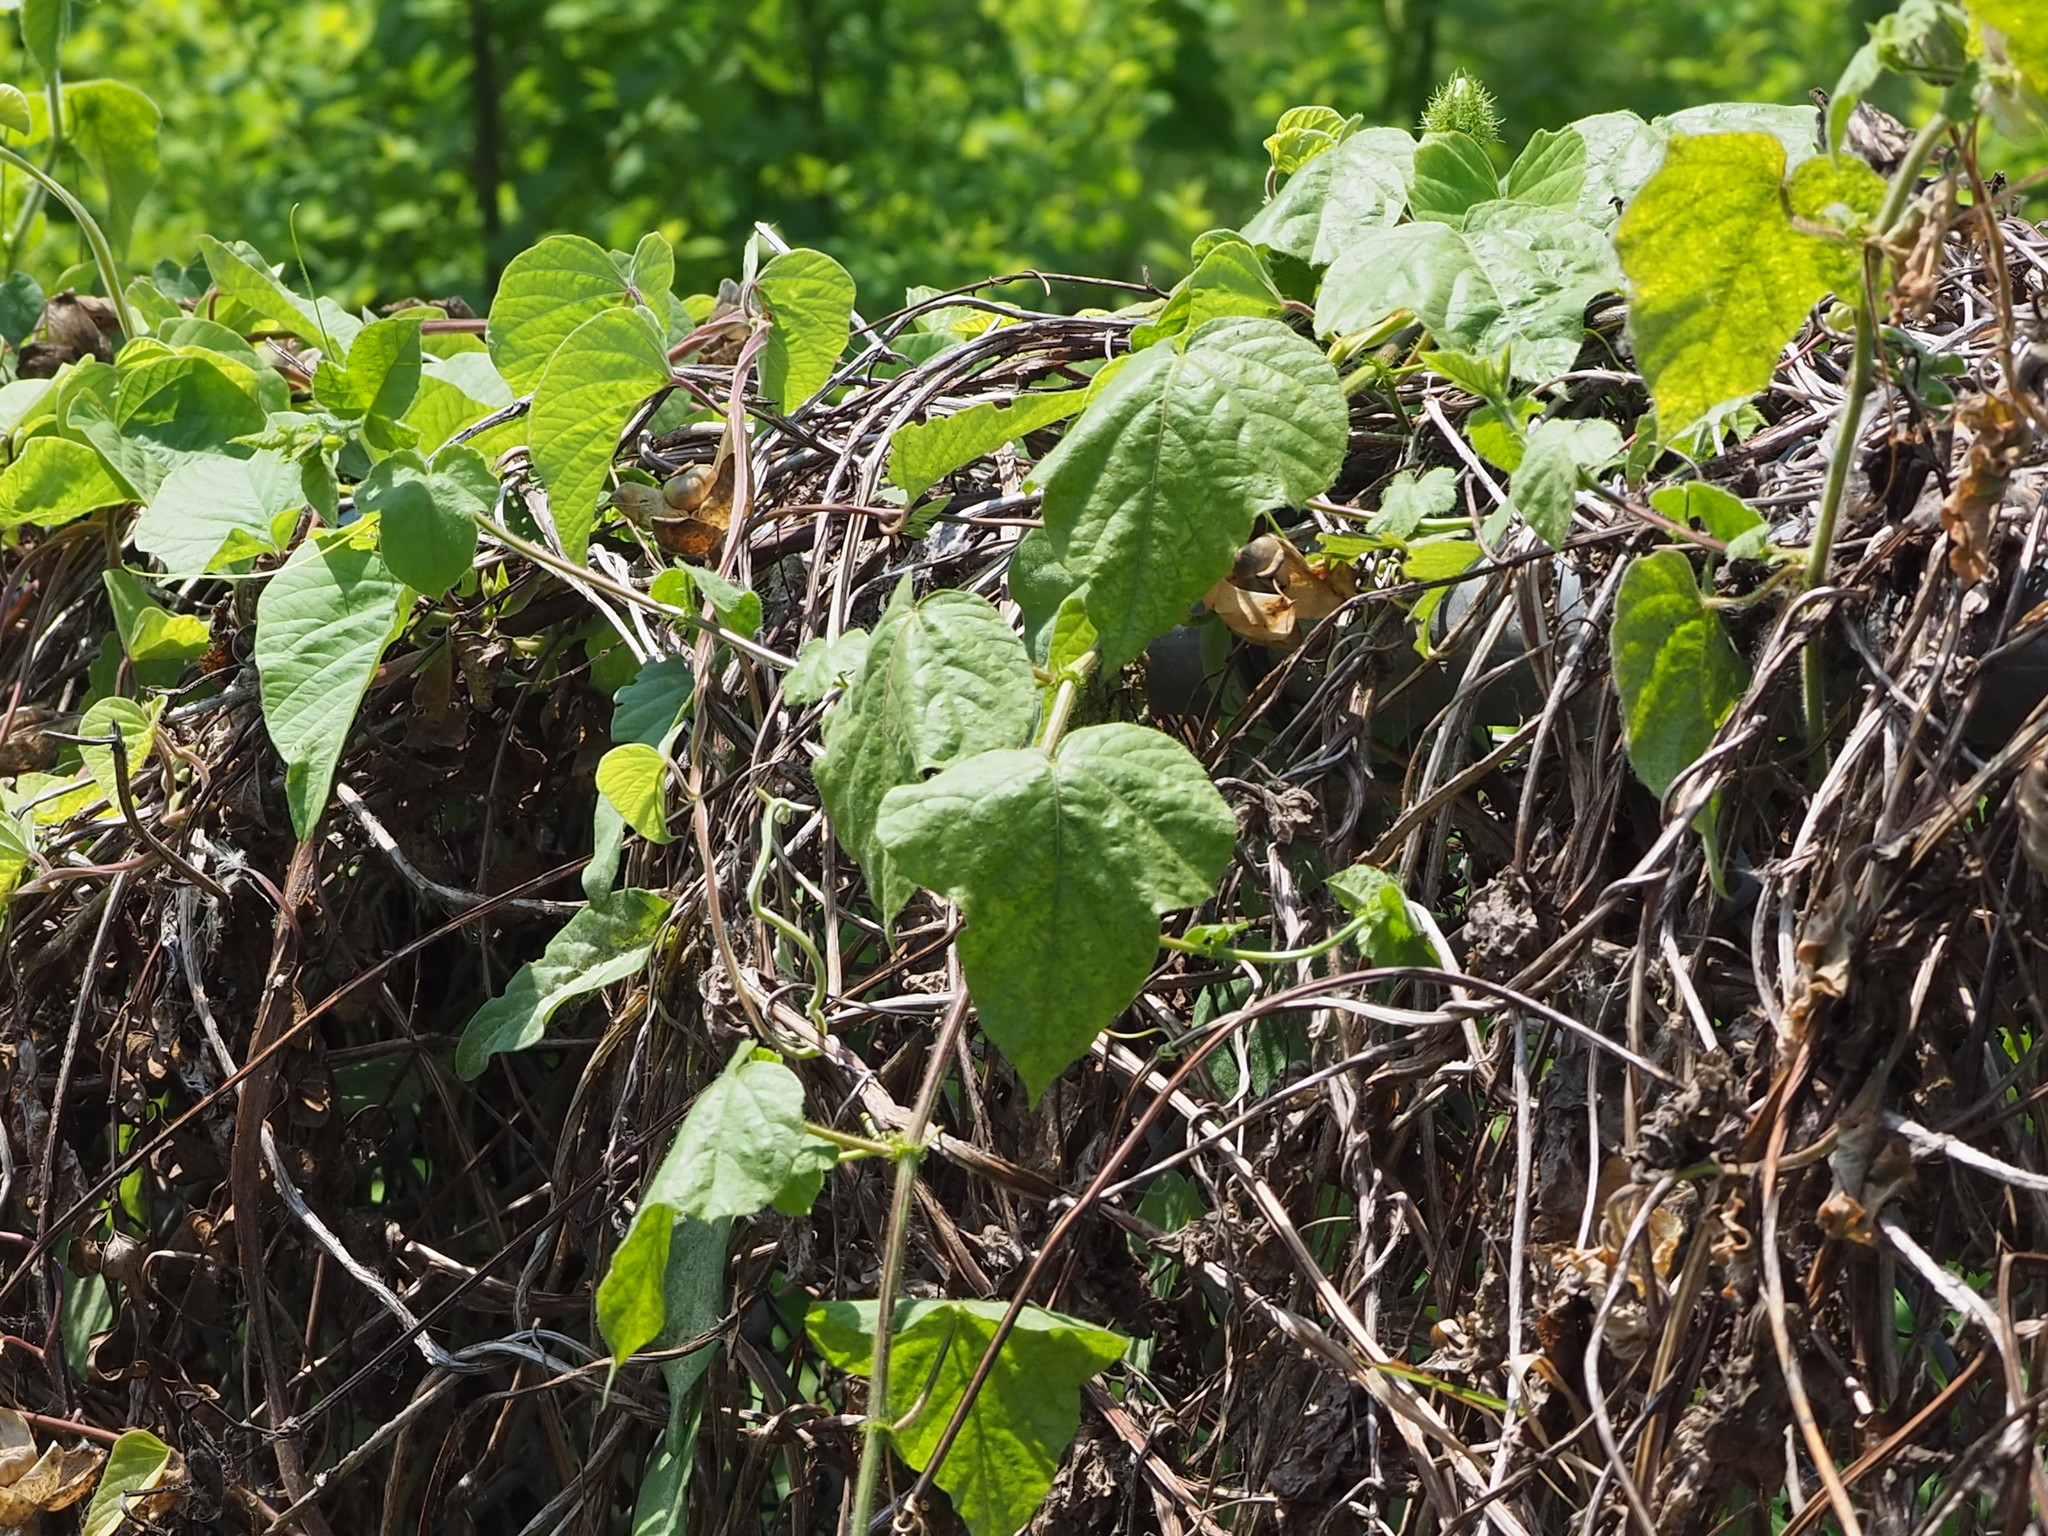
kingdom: Plantae
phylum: Tracheophyta
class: Magnoliopsida
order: Malpighiales
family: Passifloraceae
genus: Passiflora
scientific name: Passiflora vesicaria
